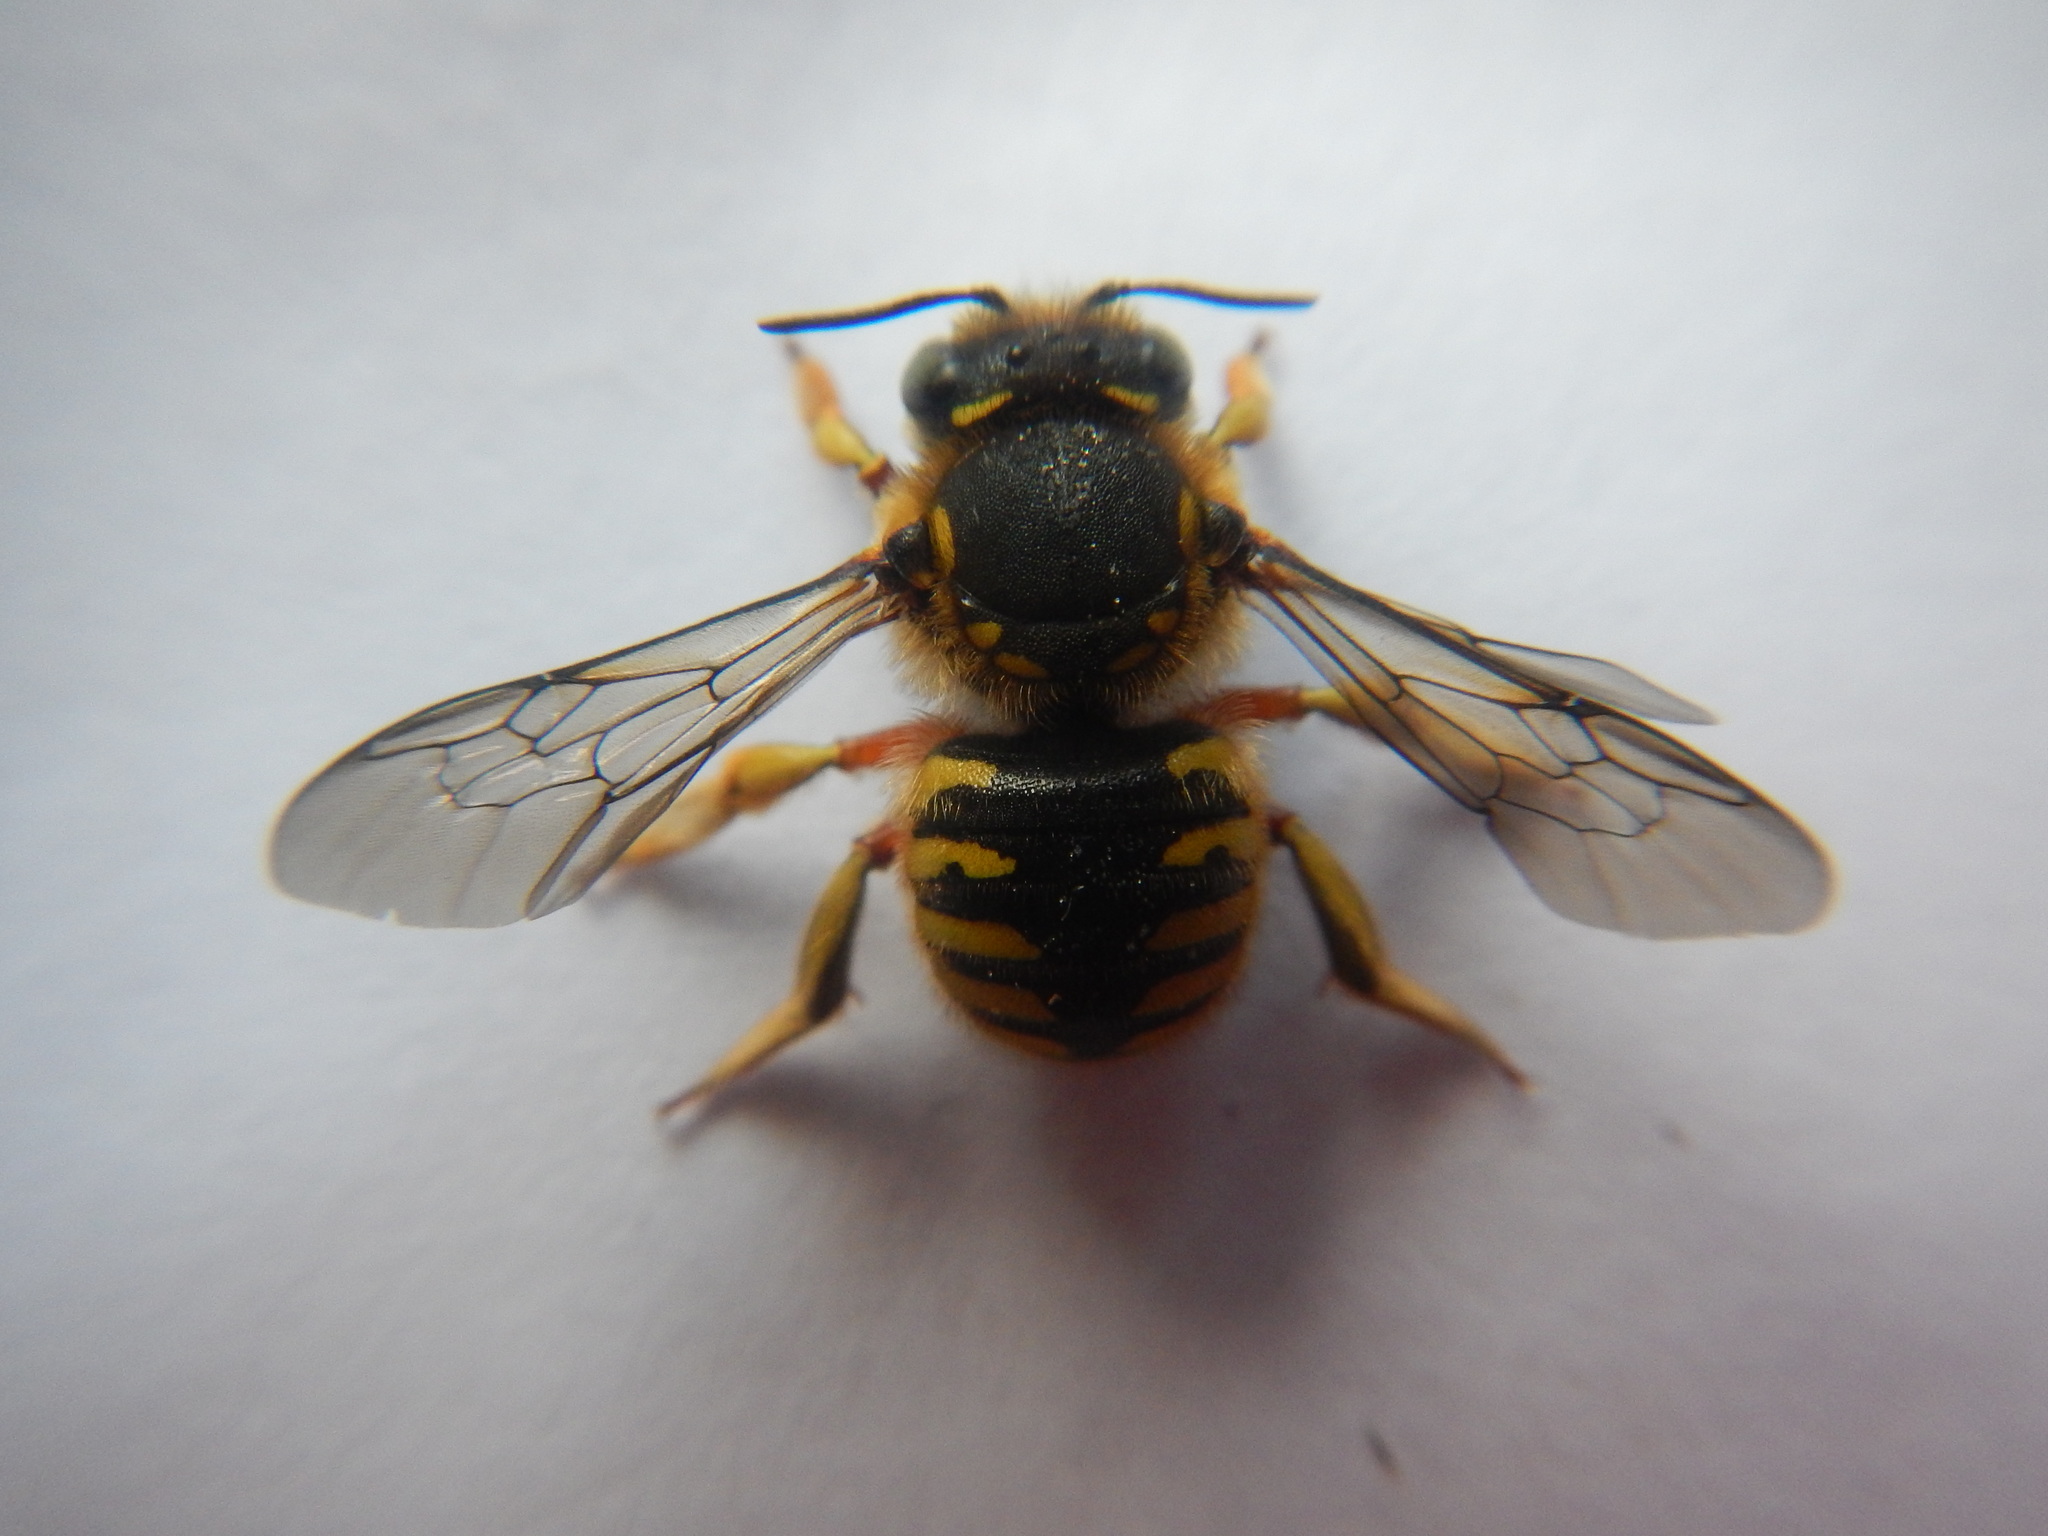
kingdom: Animalia
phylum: Arthropoda
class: Insecta
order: Hymenoptera
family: Megachilidae
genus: Anthidium
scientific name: Anthidium manicatum
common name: Wool carder bee
